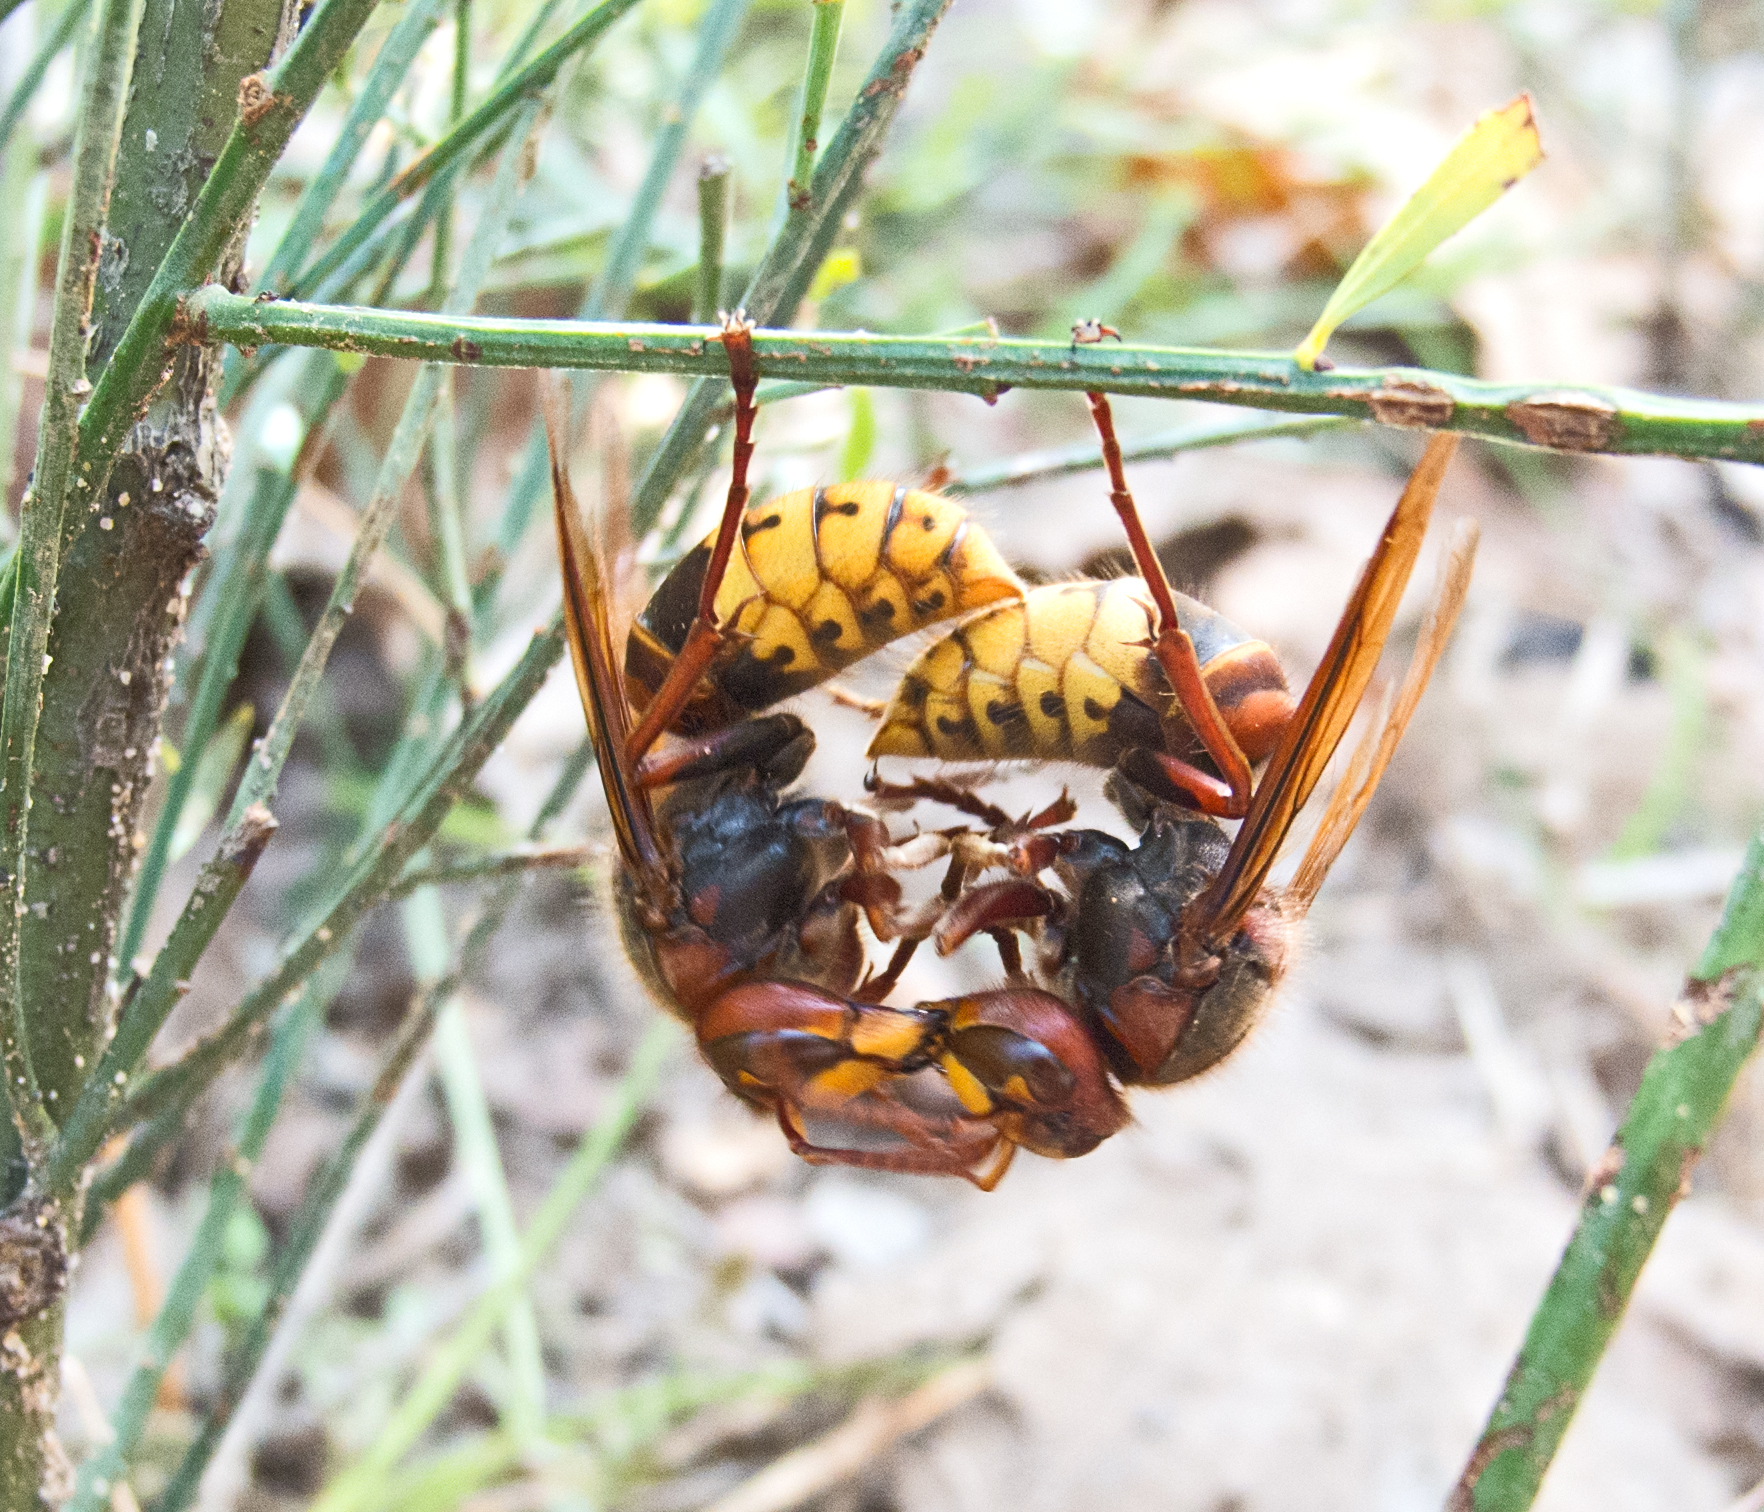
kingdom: Animalia
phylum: Arthropoda
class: Insecta
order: Hymenoptera
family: Vespidae
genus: Vespa
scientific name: Vespa crabro
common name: Hornet
